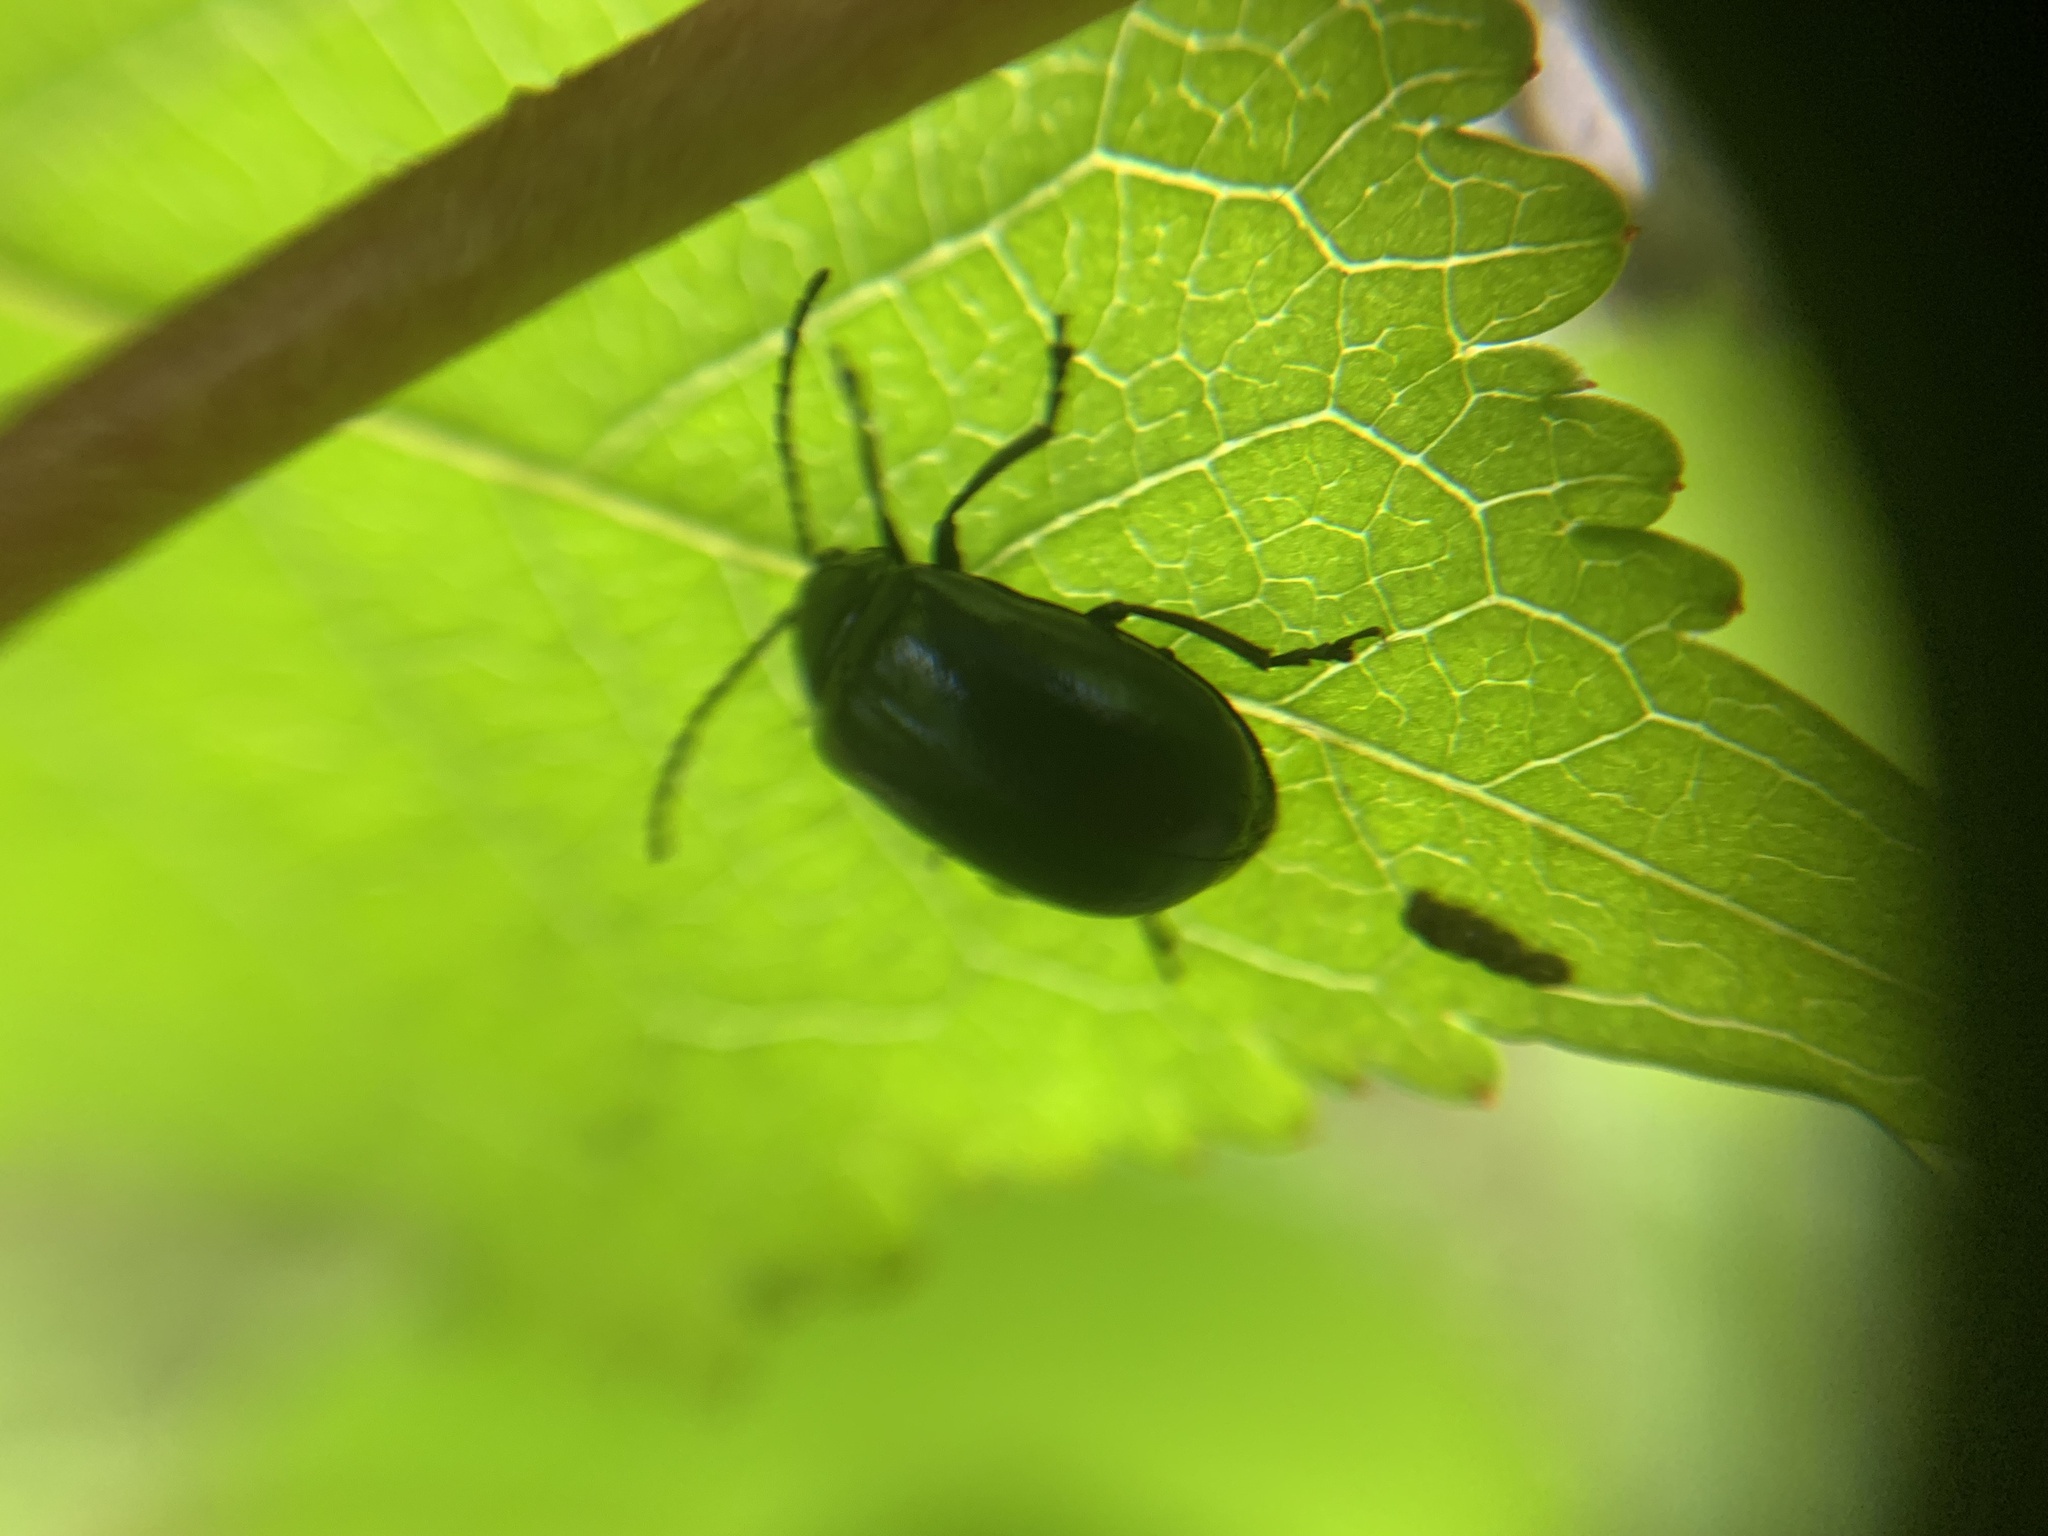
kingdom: Animalia
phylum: Arthropoda
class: Insecta
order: Coleoptera
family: Chrysomelidae
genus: Agelastica
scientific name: Agelastica alni
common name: Alder leaf beetle
